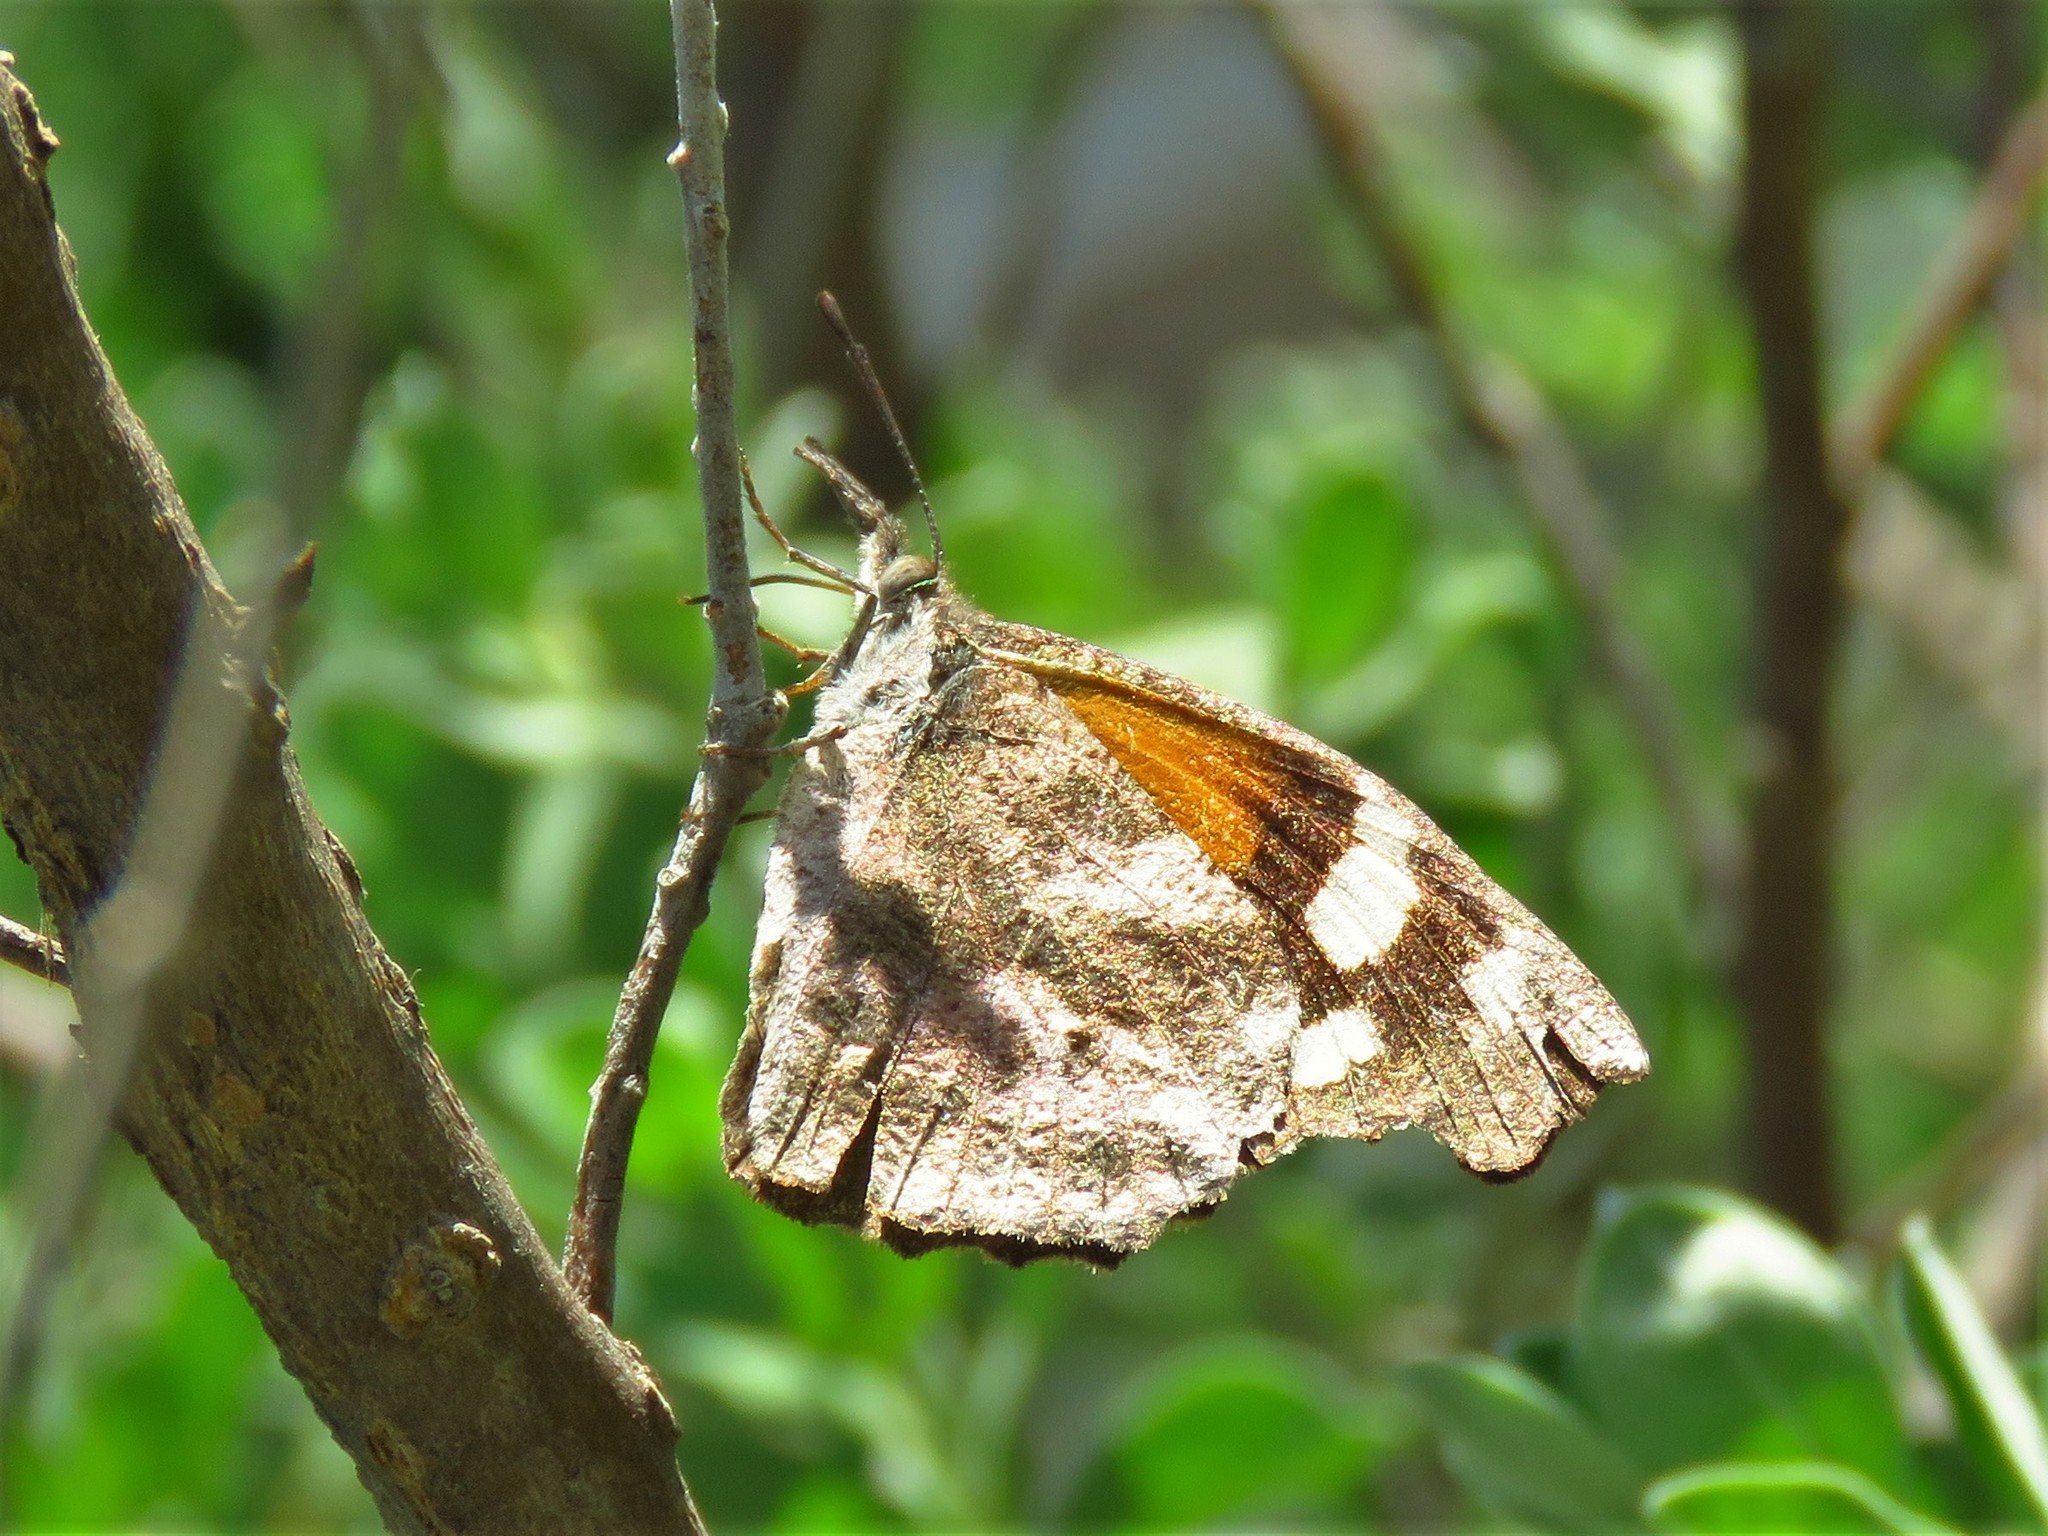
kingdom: Animalia
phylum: Arthropoda
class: Insecta
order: Lepidoptera
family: Nymphalidae
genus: Libytheana
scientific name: Libytheana carinenta
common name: American snout
